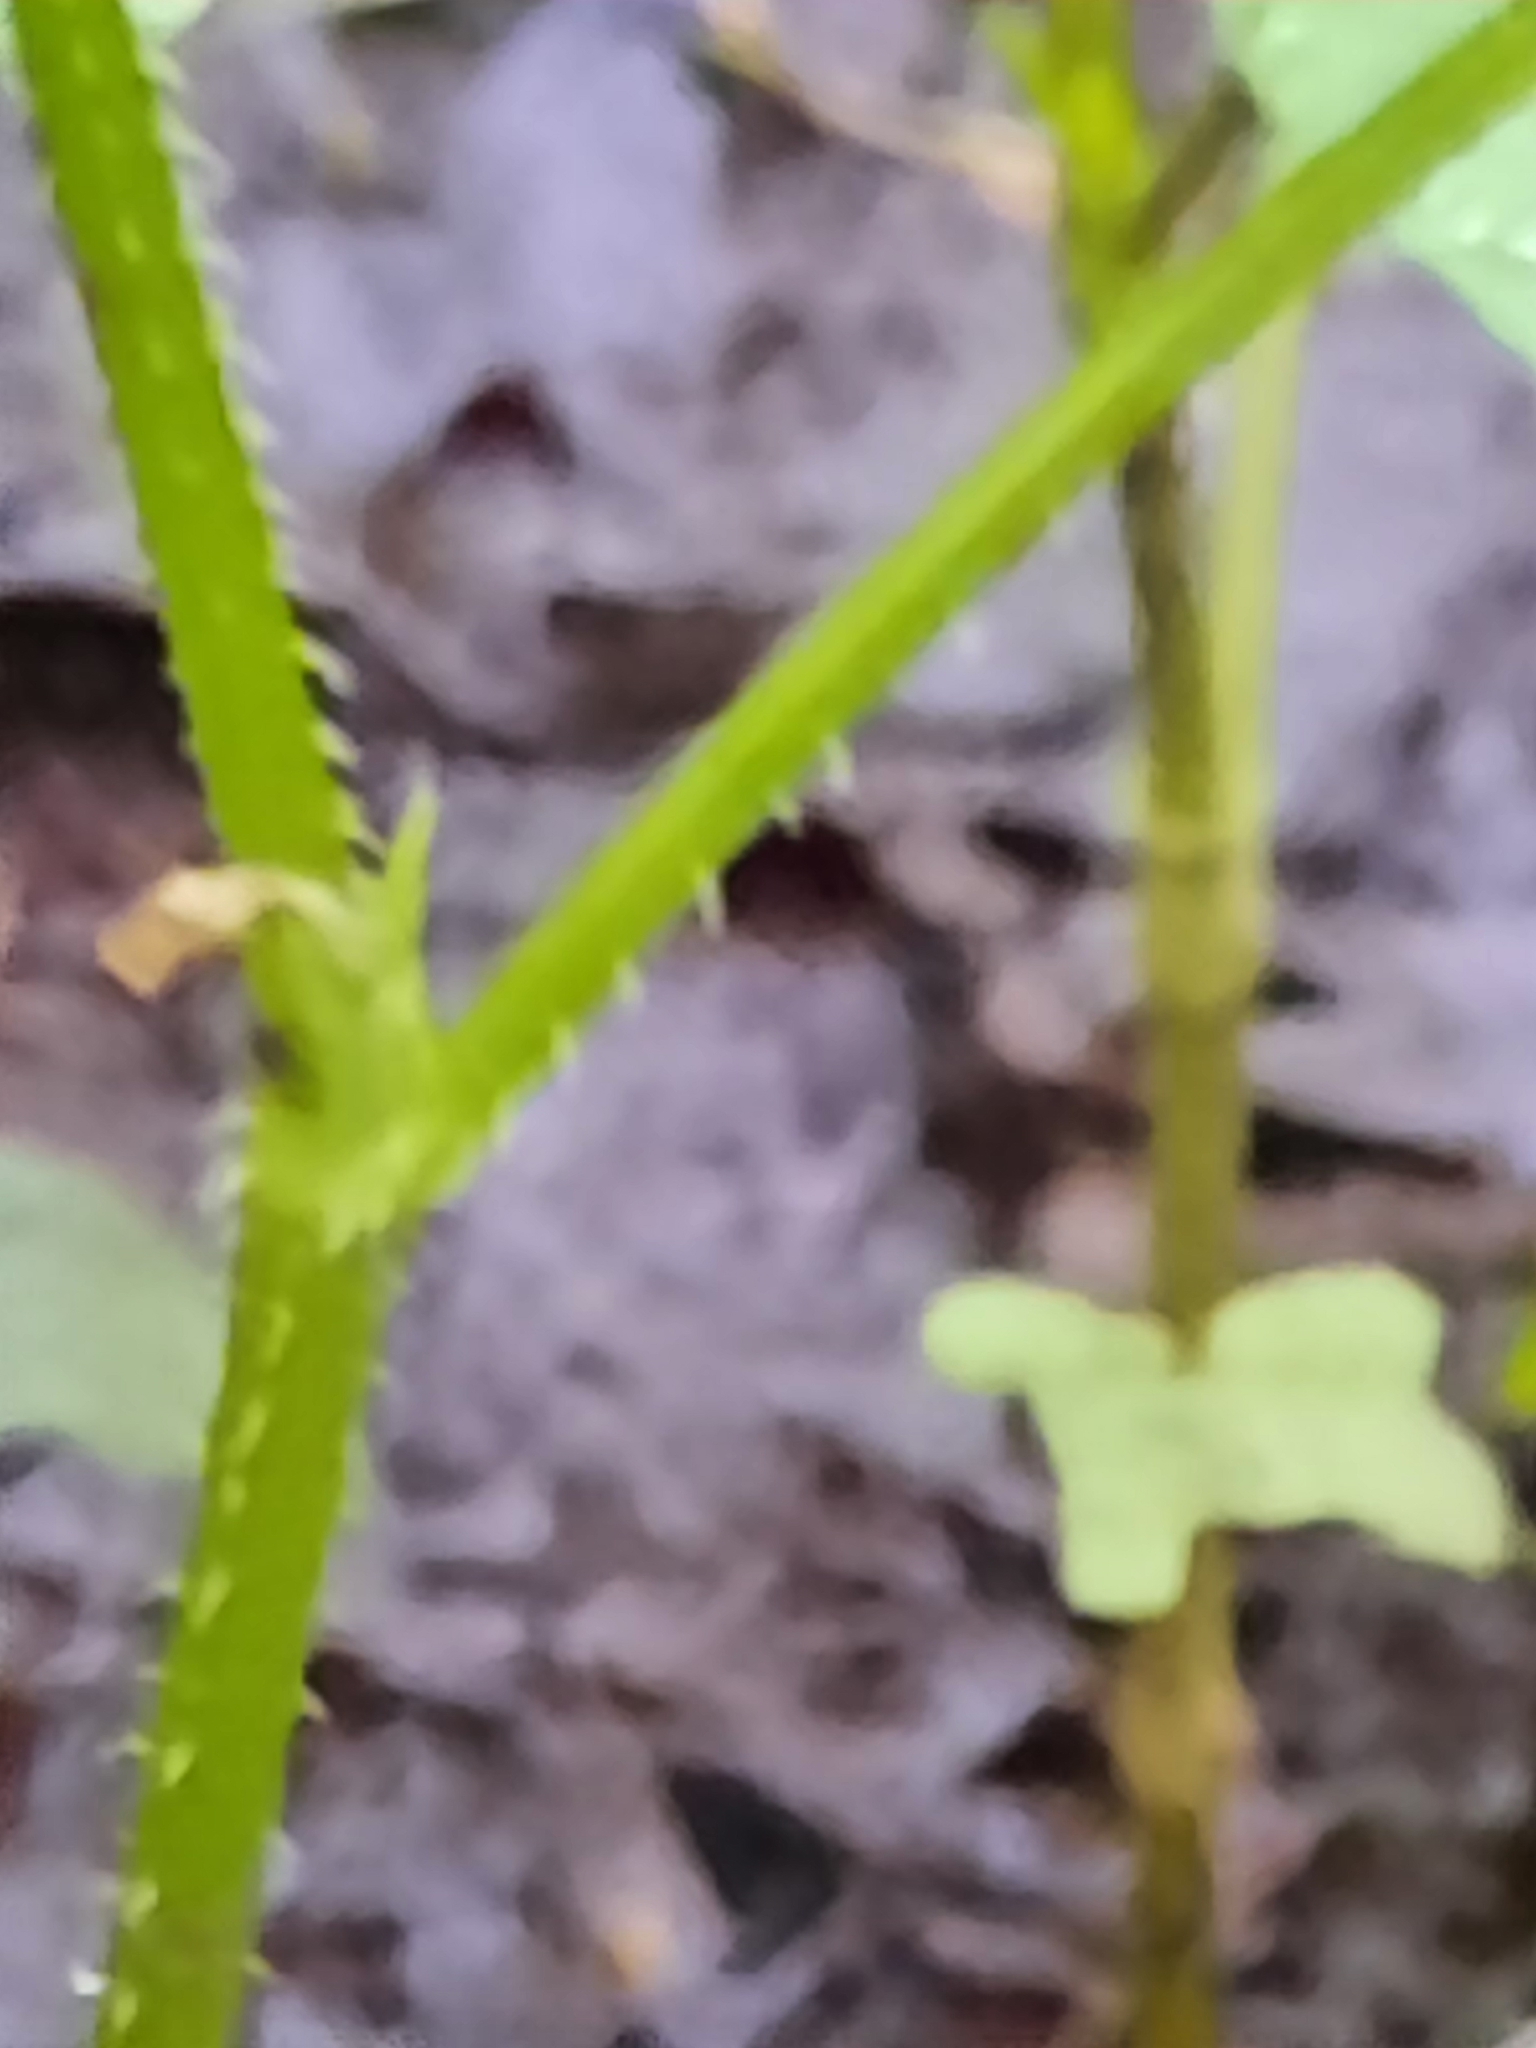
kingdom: Plantae
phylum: Tracheophyta
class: Magnoliopsida
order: Caryophyllales
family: Polygonaceae
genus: Persicaria
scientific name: Persicaria arifolia
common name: Halberd-leaved tear-thumb
